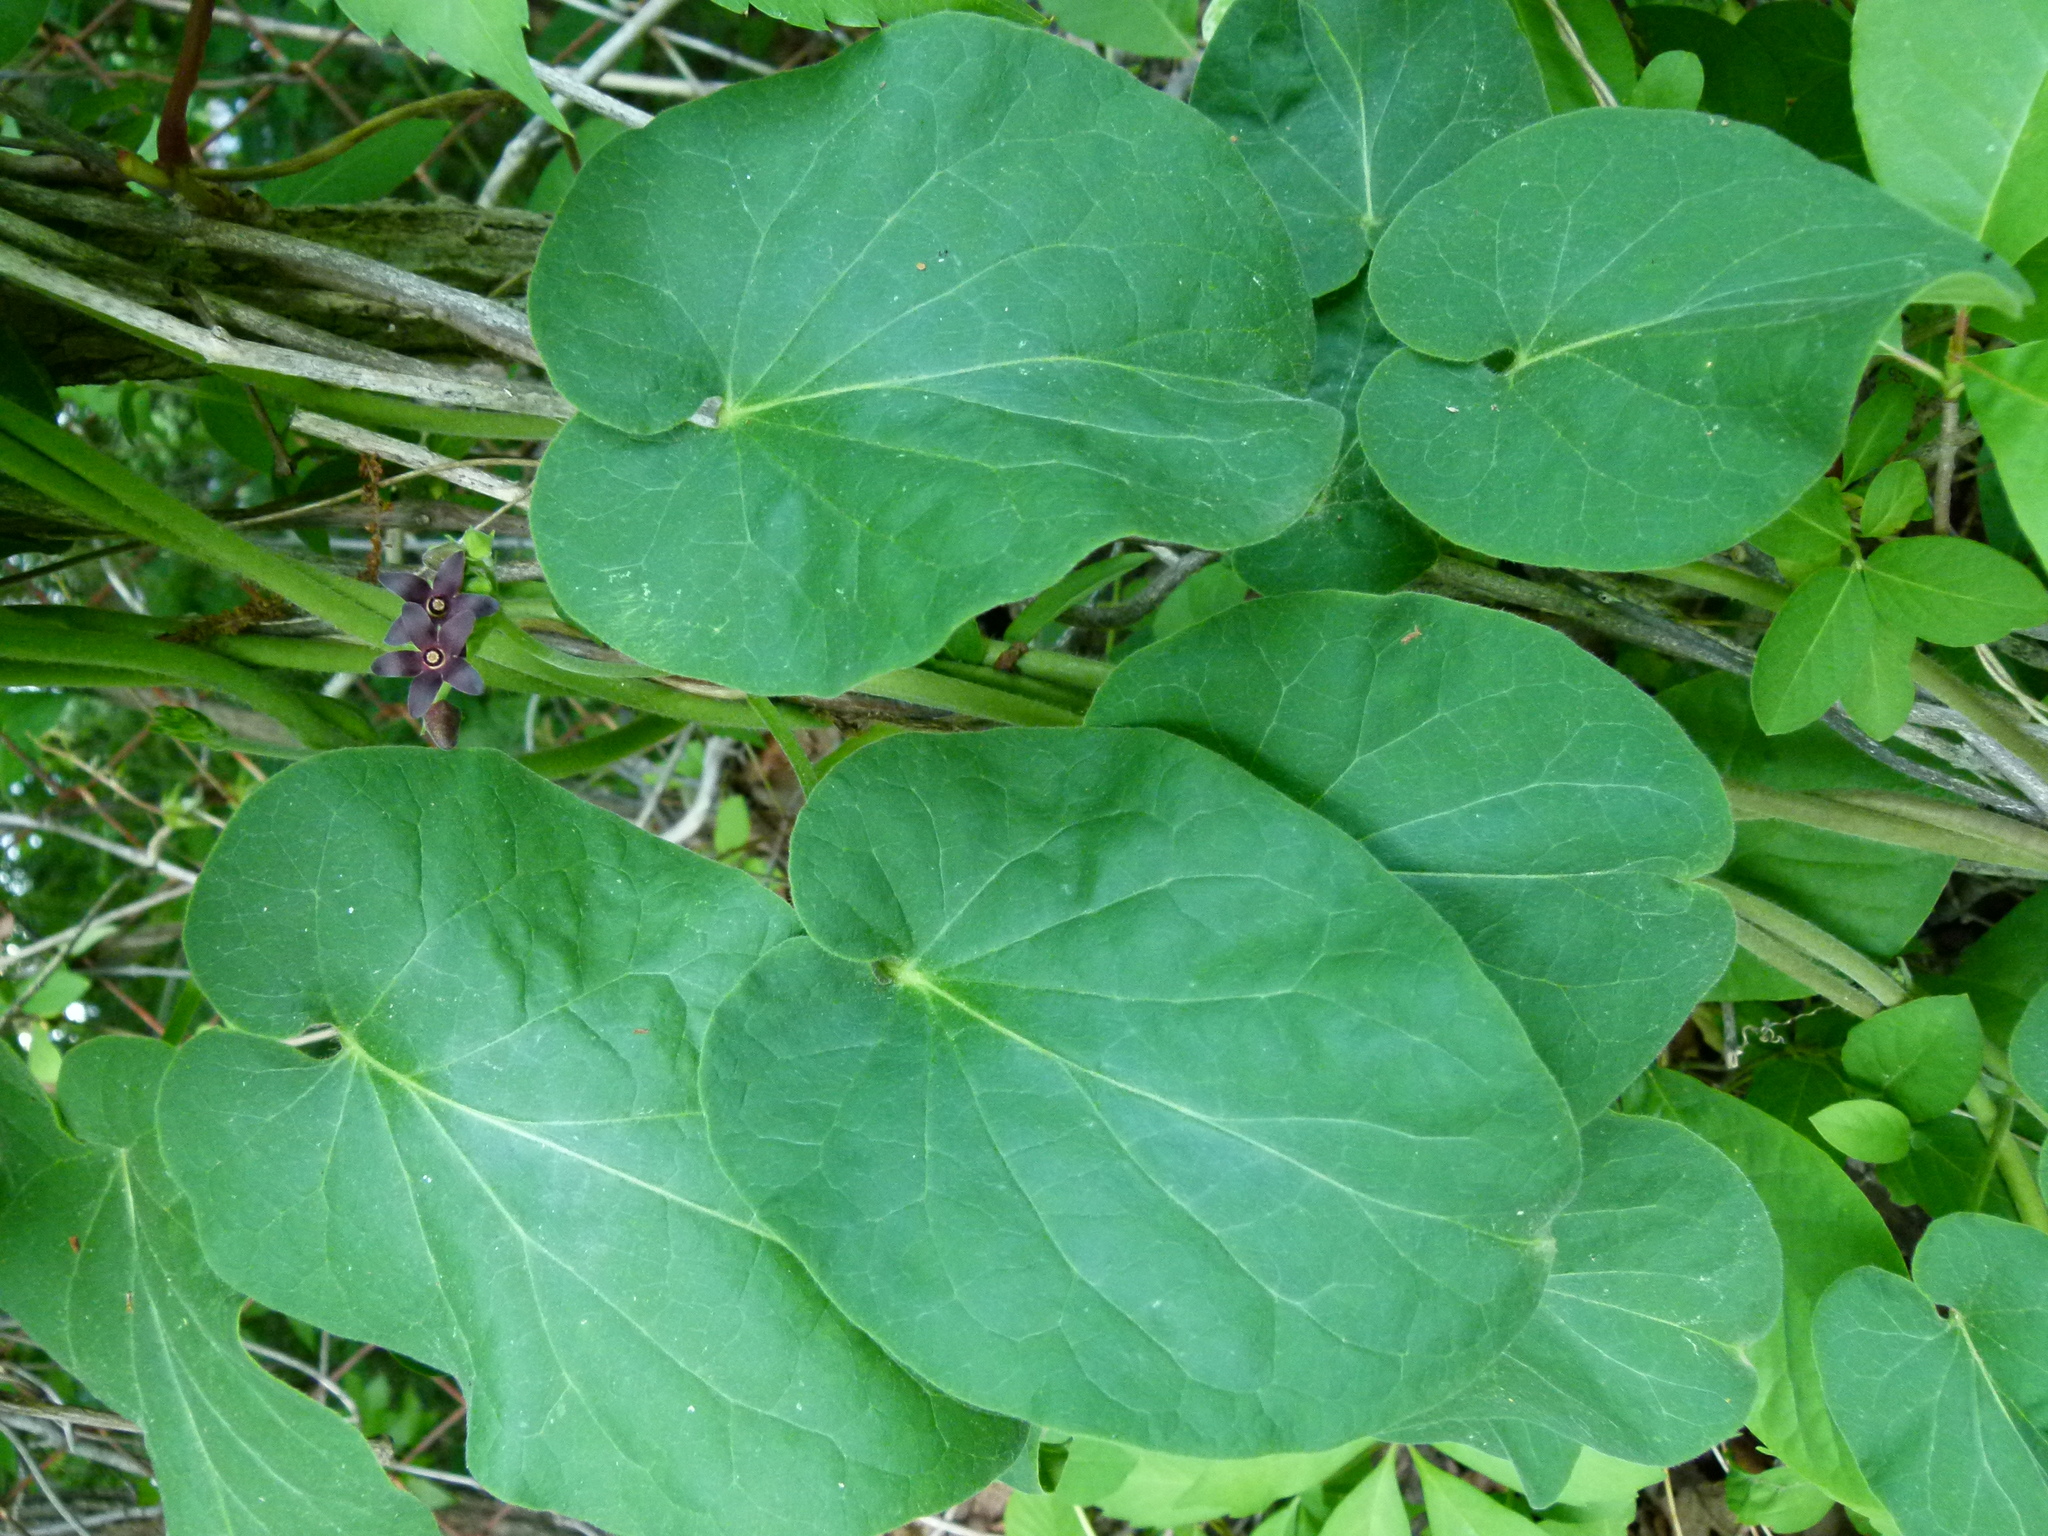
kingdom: Plantae
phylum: Tracheophyta
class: Magnoliopsida
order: Gentianales
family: Apocynaceae
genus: Matelea
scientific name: Matelea carolinensis
